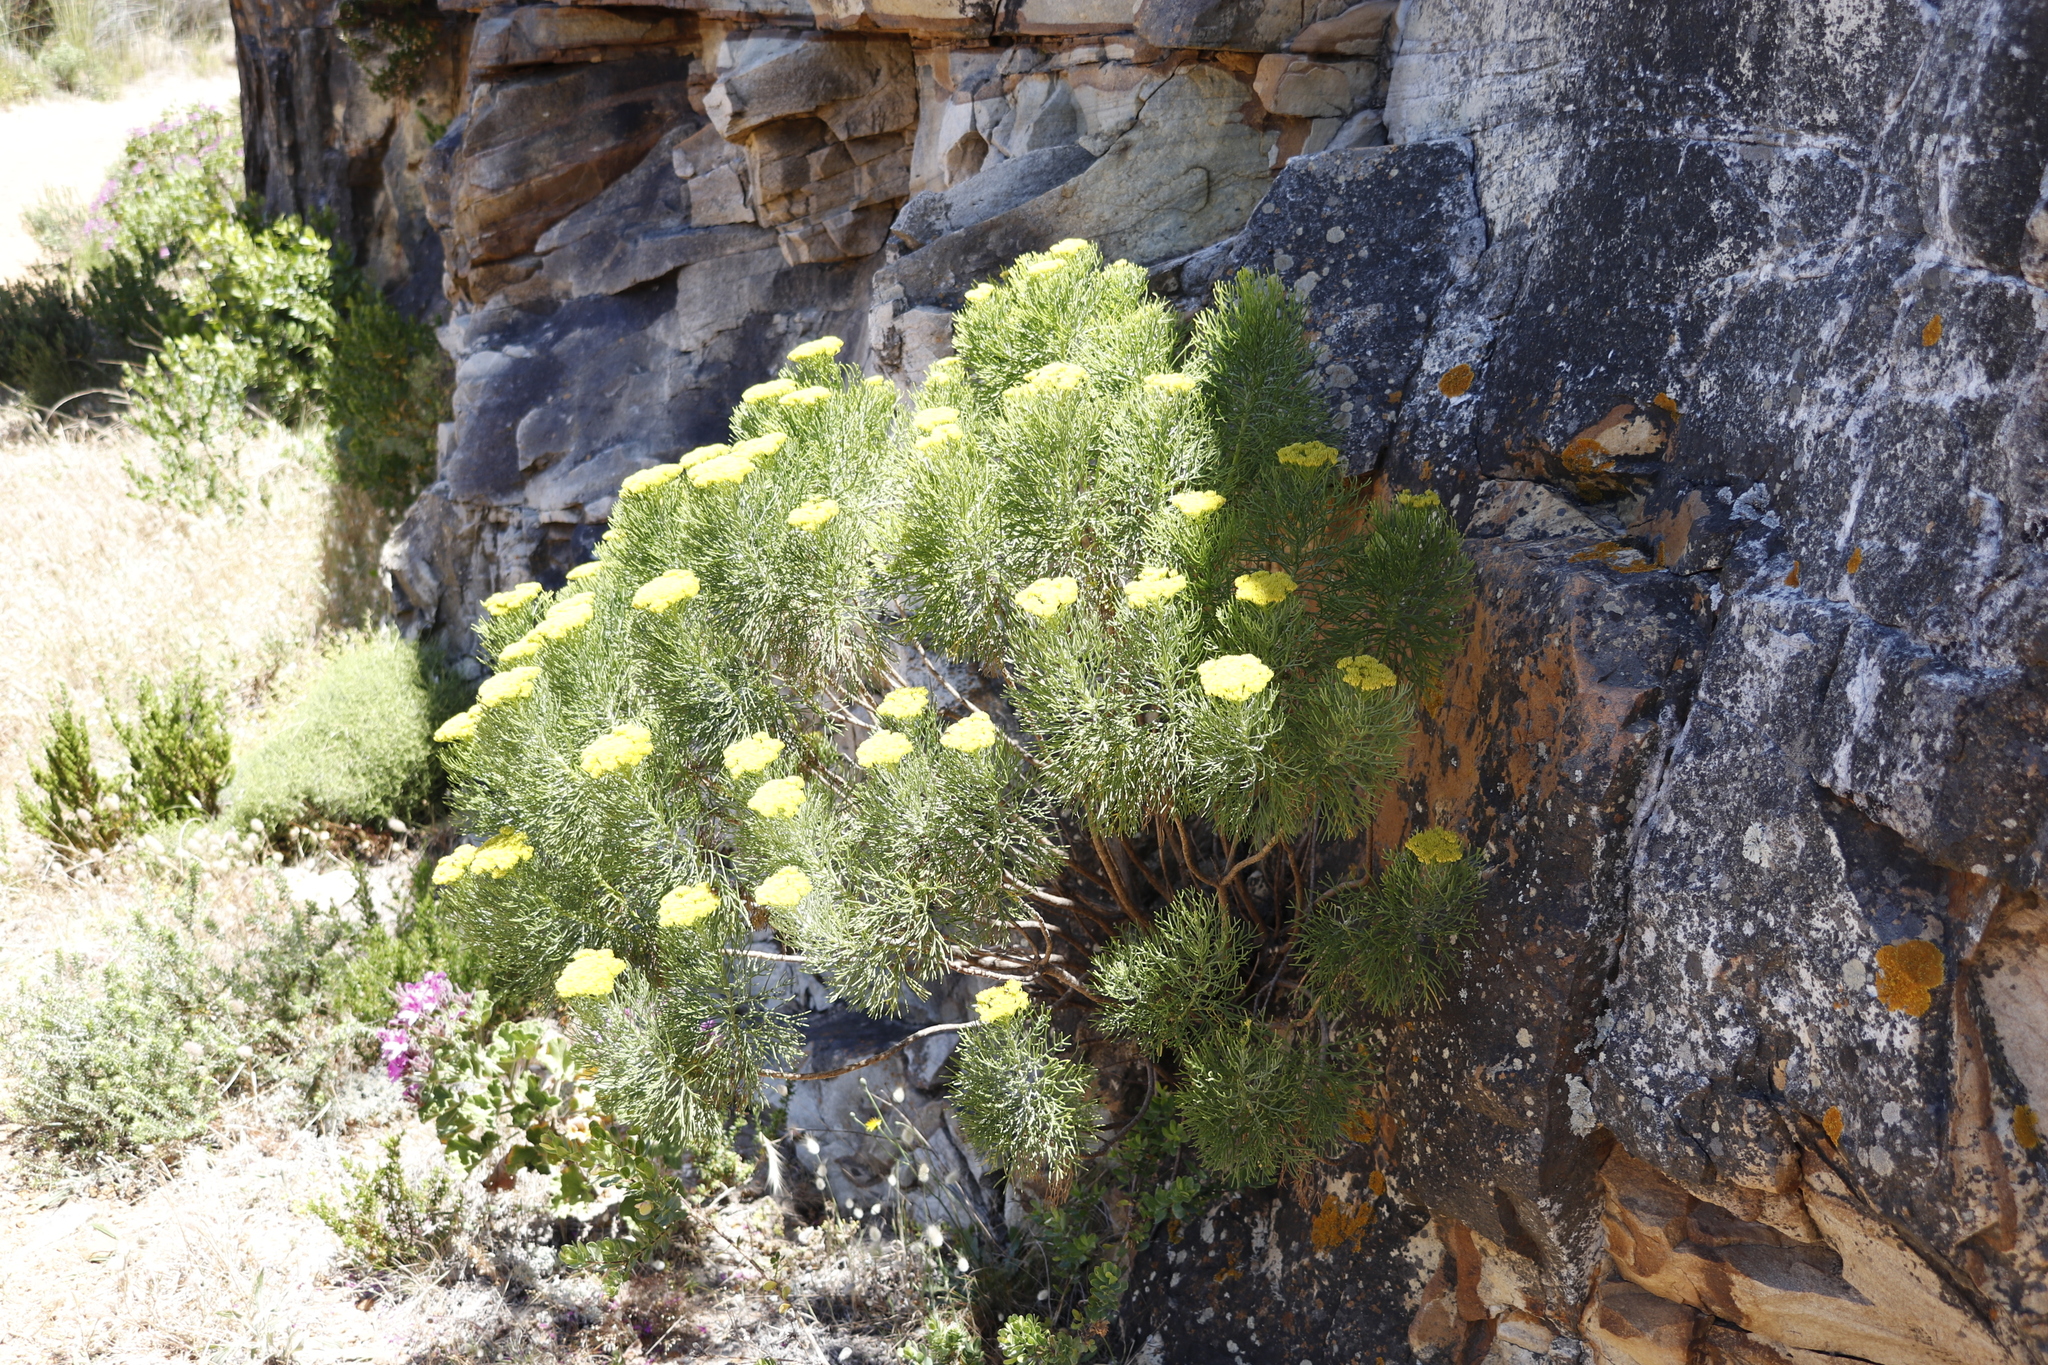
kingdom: Plantae
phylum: Tracheophyta
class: Magnoliopsida
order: Asterales
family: Asteraceae
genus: Hymenolepis
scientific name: Hymenolepis crithmifolia
